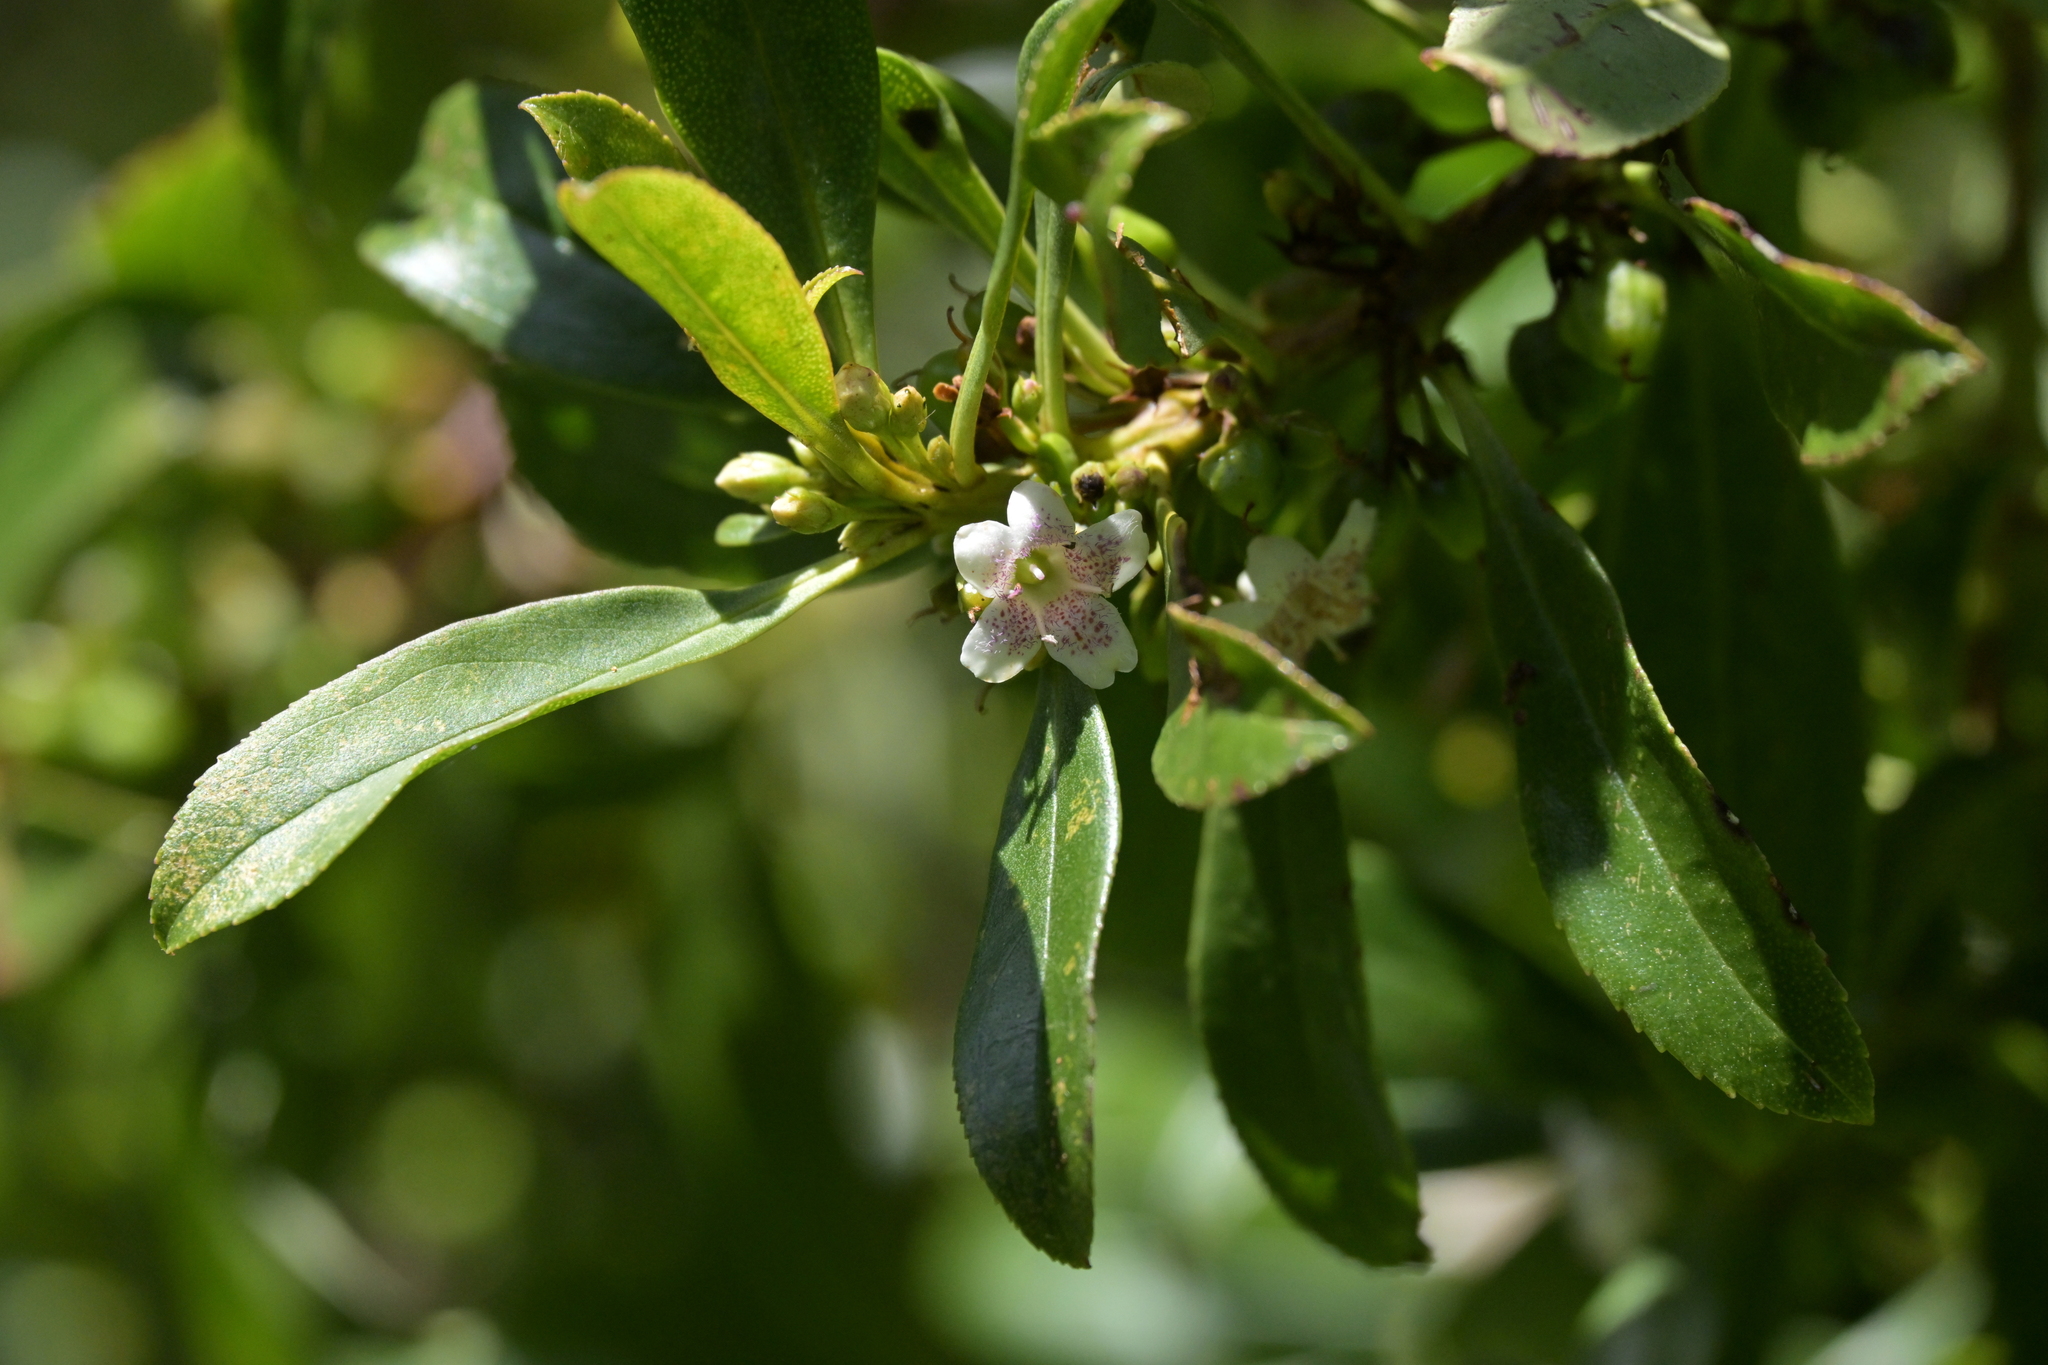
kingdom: Plantae
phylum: Tracheophyta
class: Magnoliopsida
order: Lamiales
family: Scrophulariaceae
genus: Myoporum
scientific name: Myoporum laetum
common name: Ngaio tree
